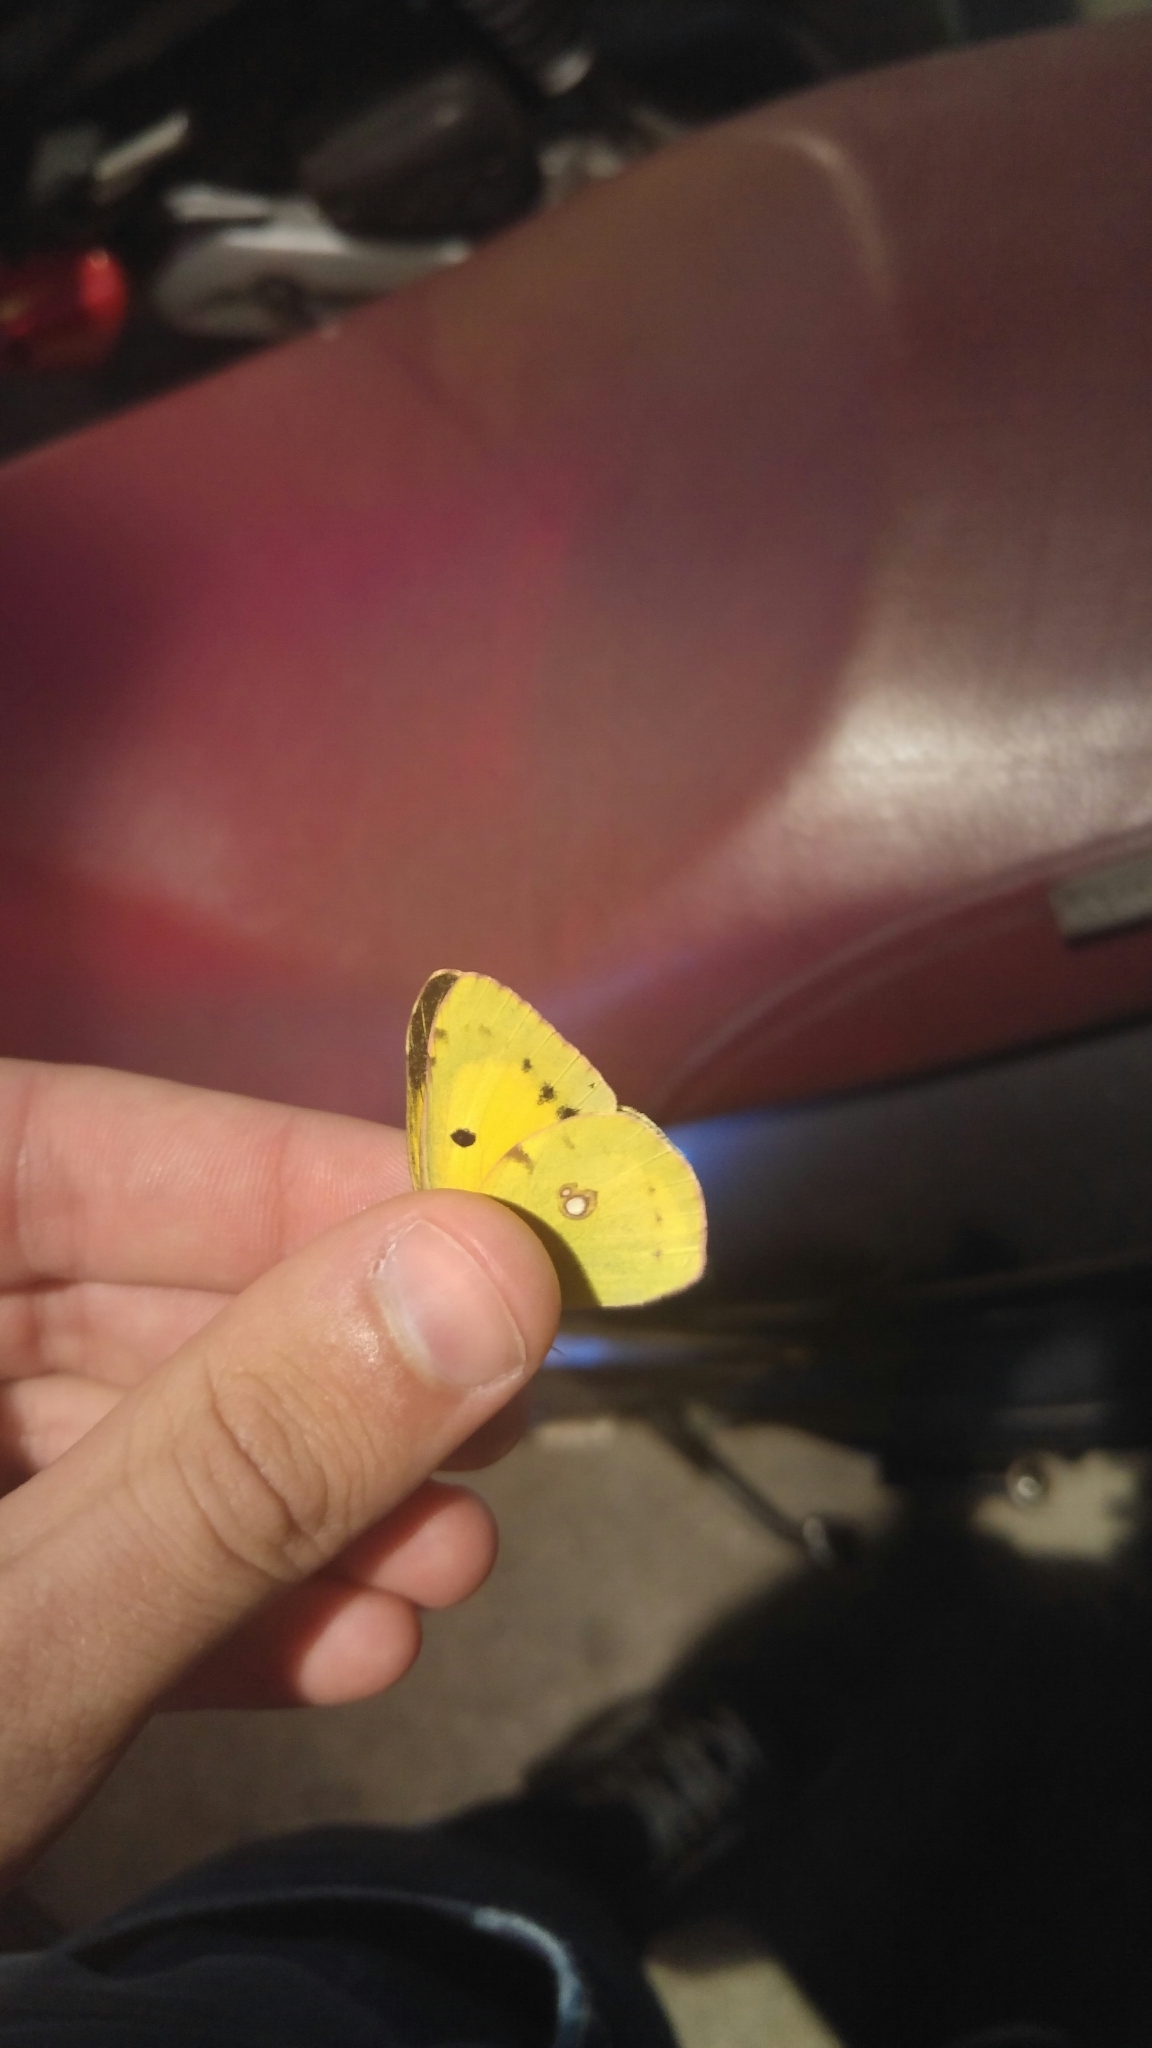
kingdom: Animalia
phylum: Arthropoda
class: Insecta
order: Lepidoptera
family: Pieridae
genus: Colias
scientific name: Colias croceus
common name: Clouded yellow
